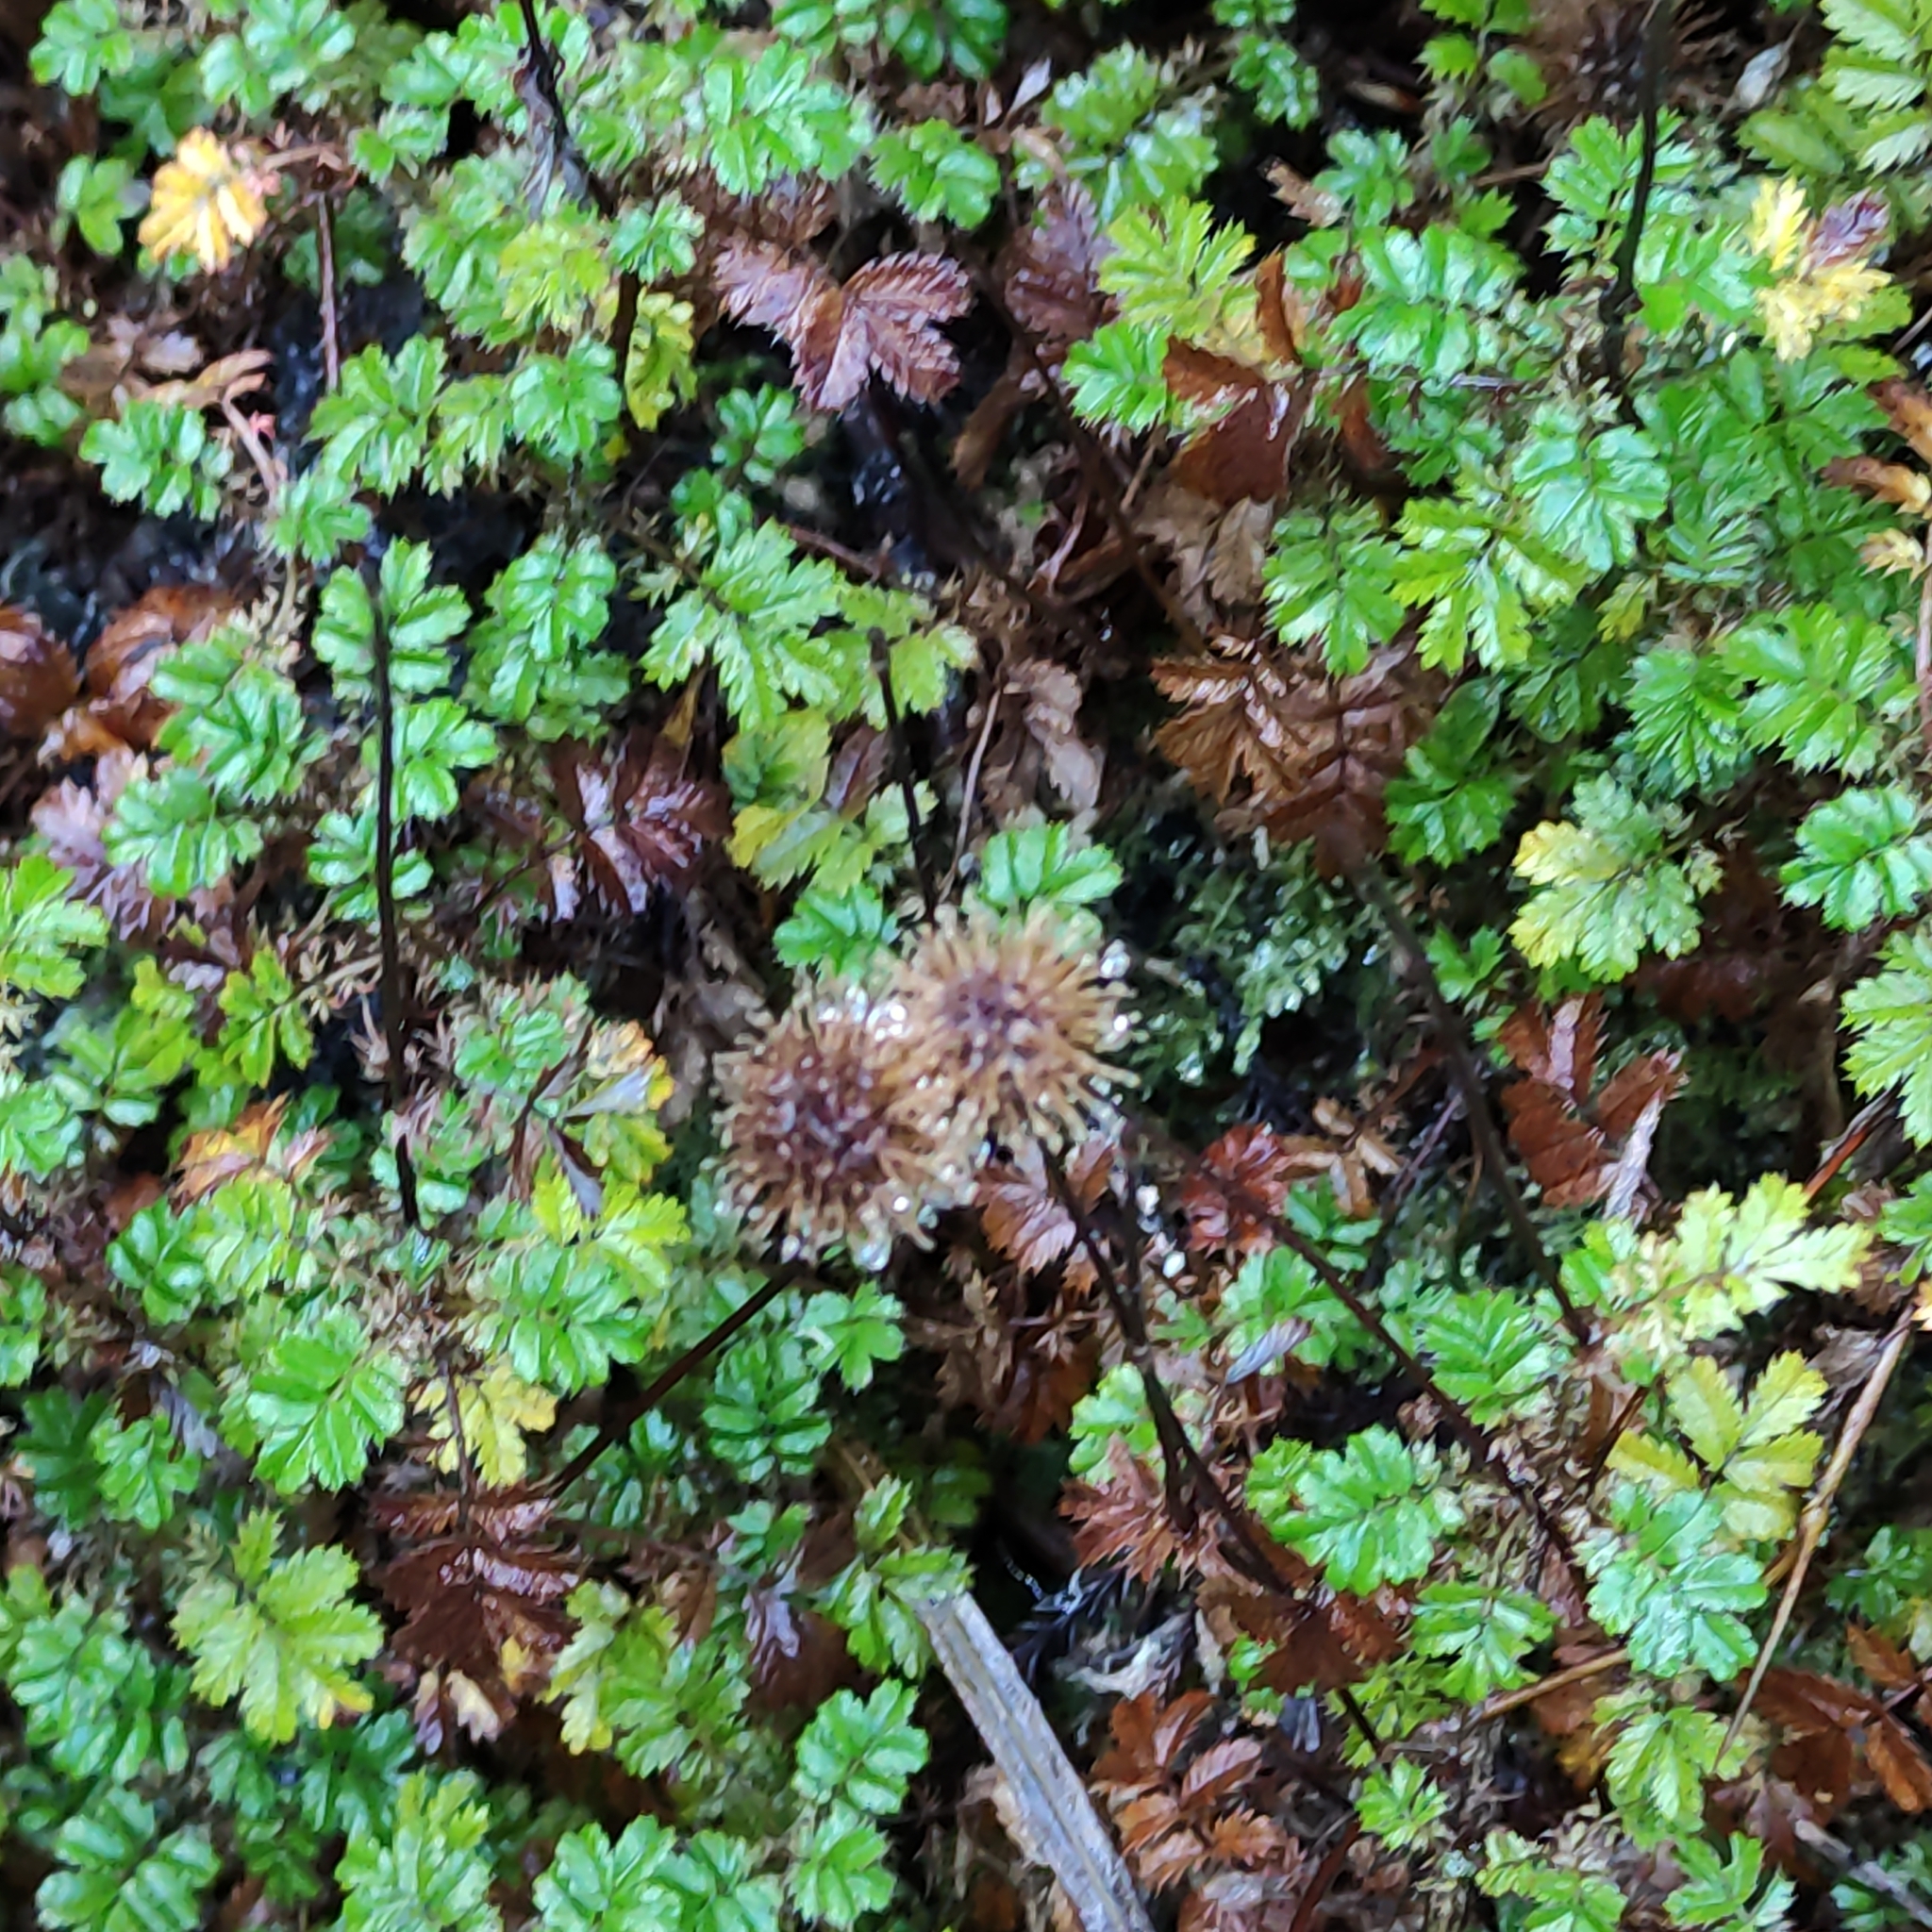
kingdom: Plantae
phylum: Tracheophyta
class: Magnoliopsida
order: Rosales
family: Rosaceae
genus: Acaena
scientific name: Acaena anserinifolia
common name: Bronze pirri-pirri-bur
